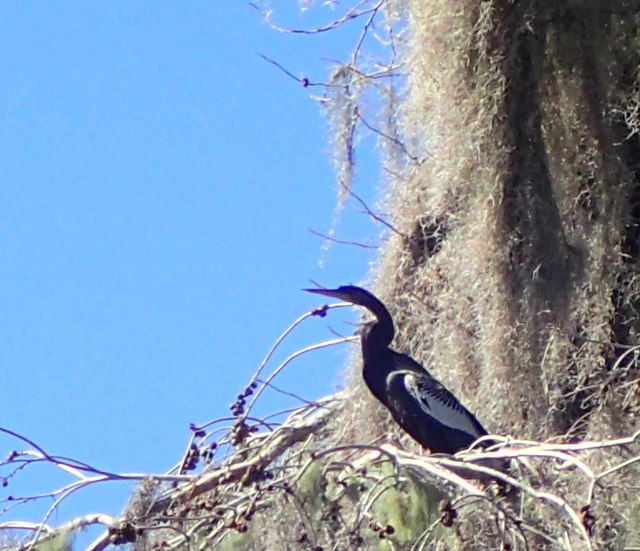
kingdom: Animalia
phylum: Chordata
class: Aves
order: Suliformes
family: Anhingidae
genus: Anhinga
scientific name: Anhinga anhinga
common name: Anhinga
